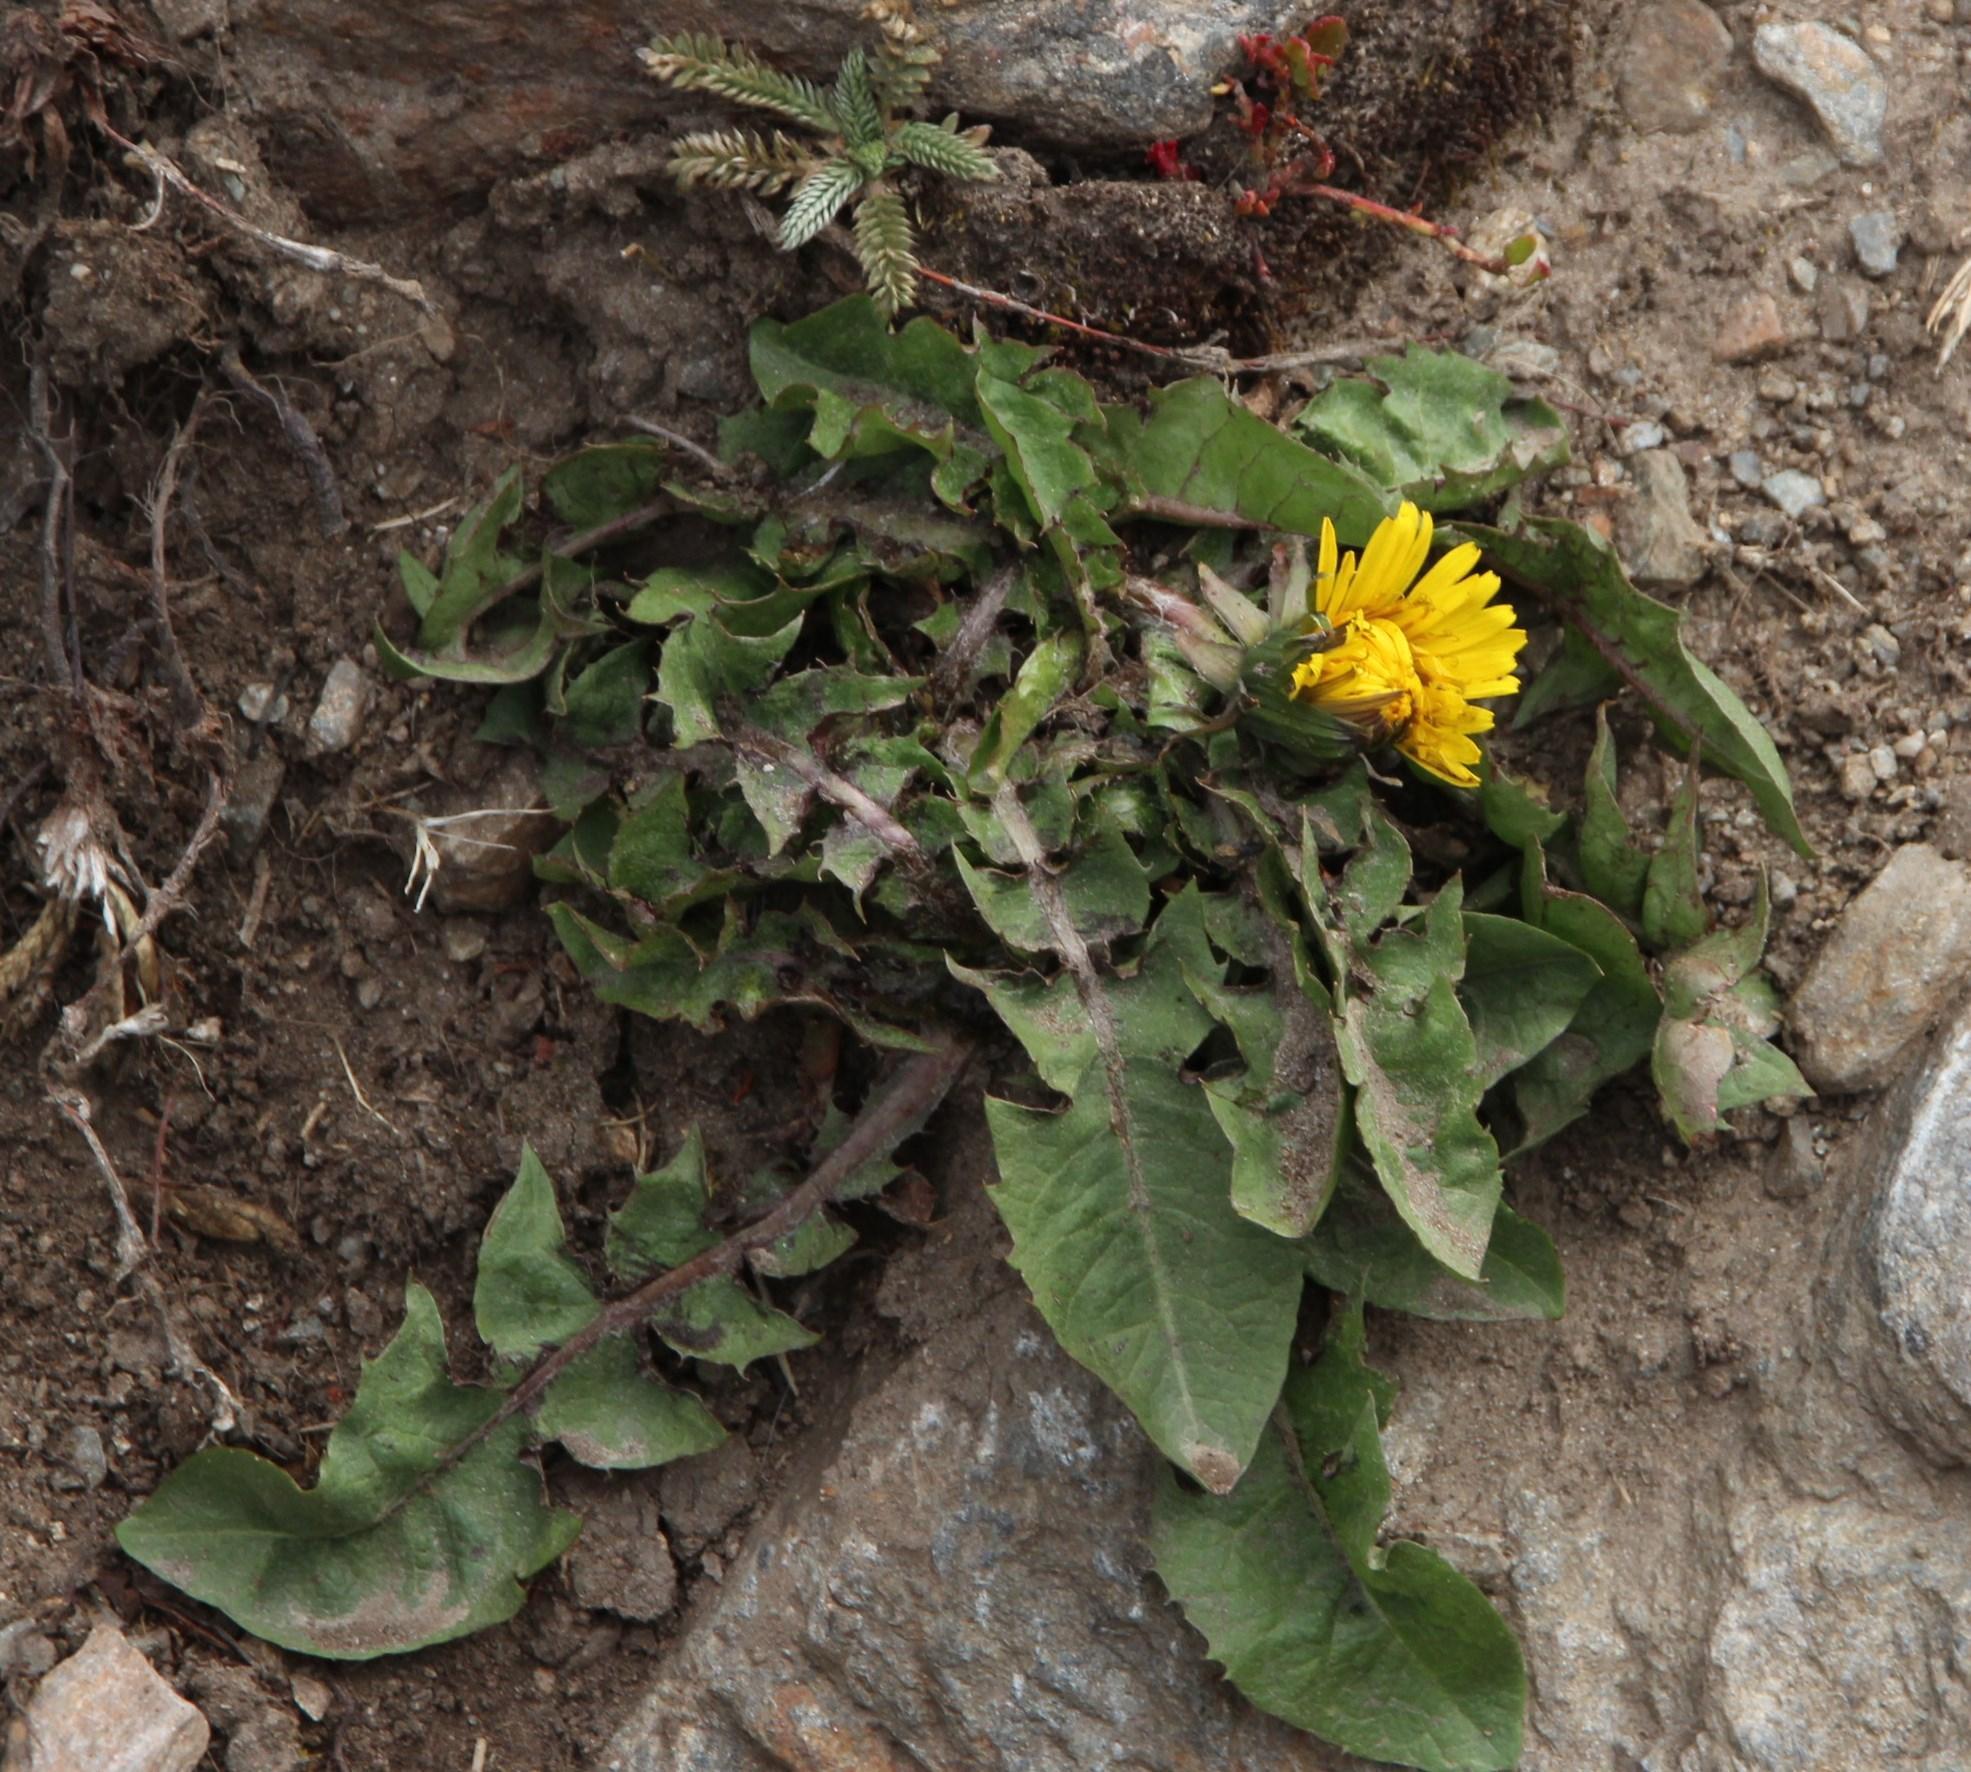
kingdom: Plantae
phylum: Tracheophyta
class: Magnoliopsida
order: Asterales
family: Asteraceae
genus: Taraxacum
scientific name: Taraxacum officinale
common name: Common dandelion
